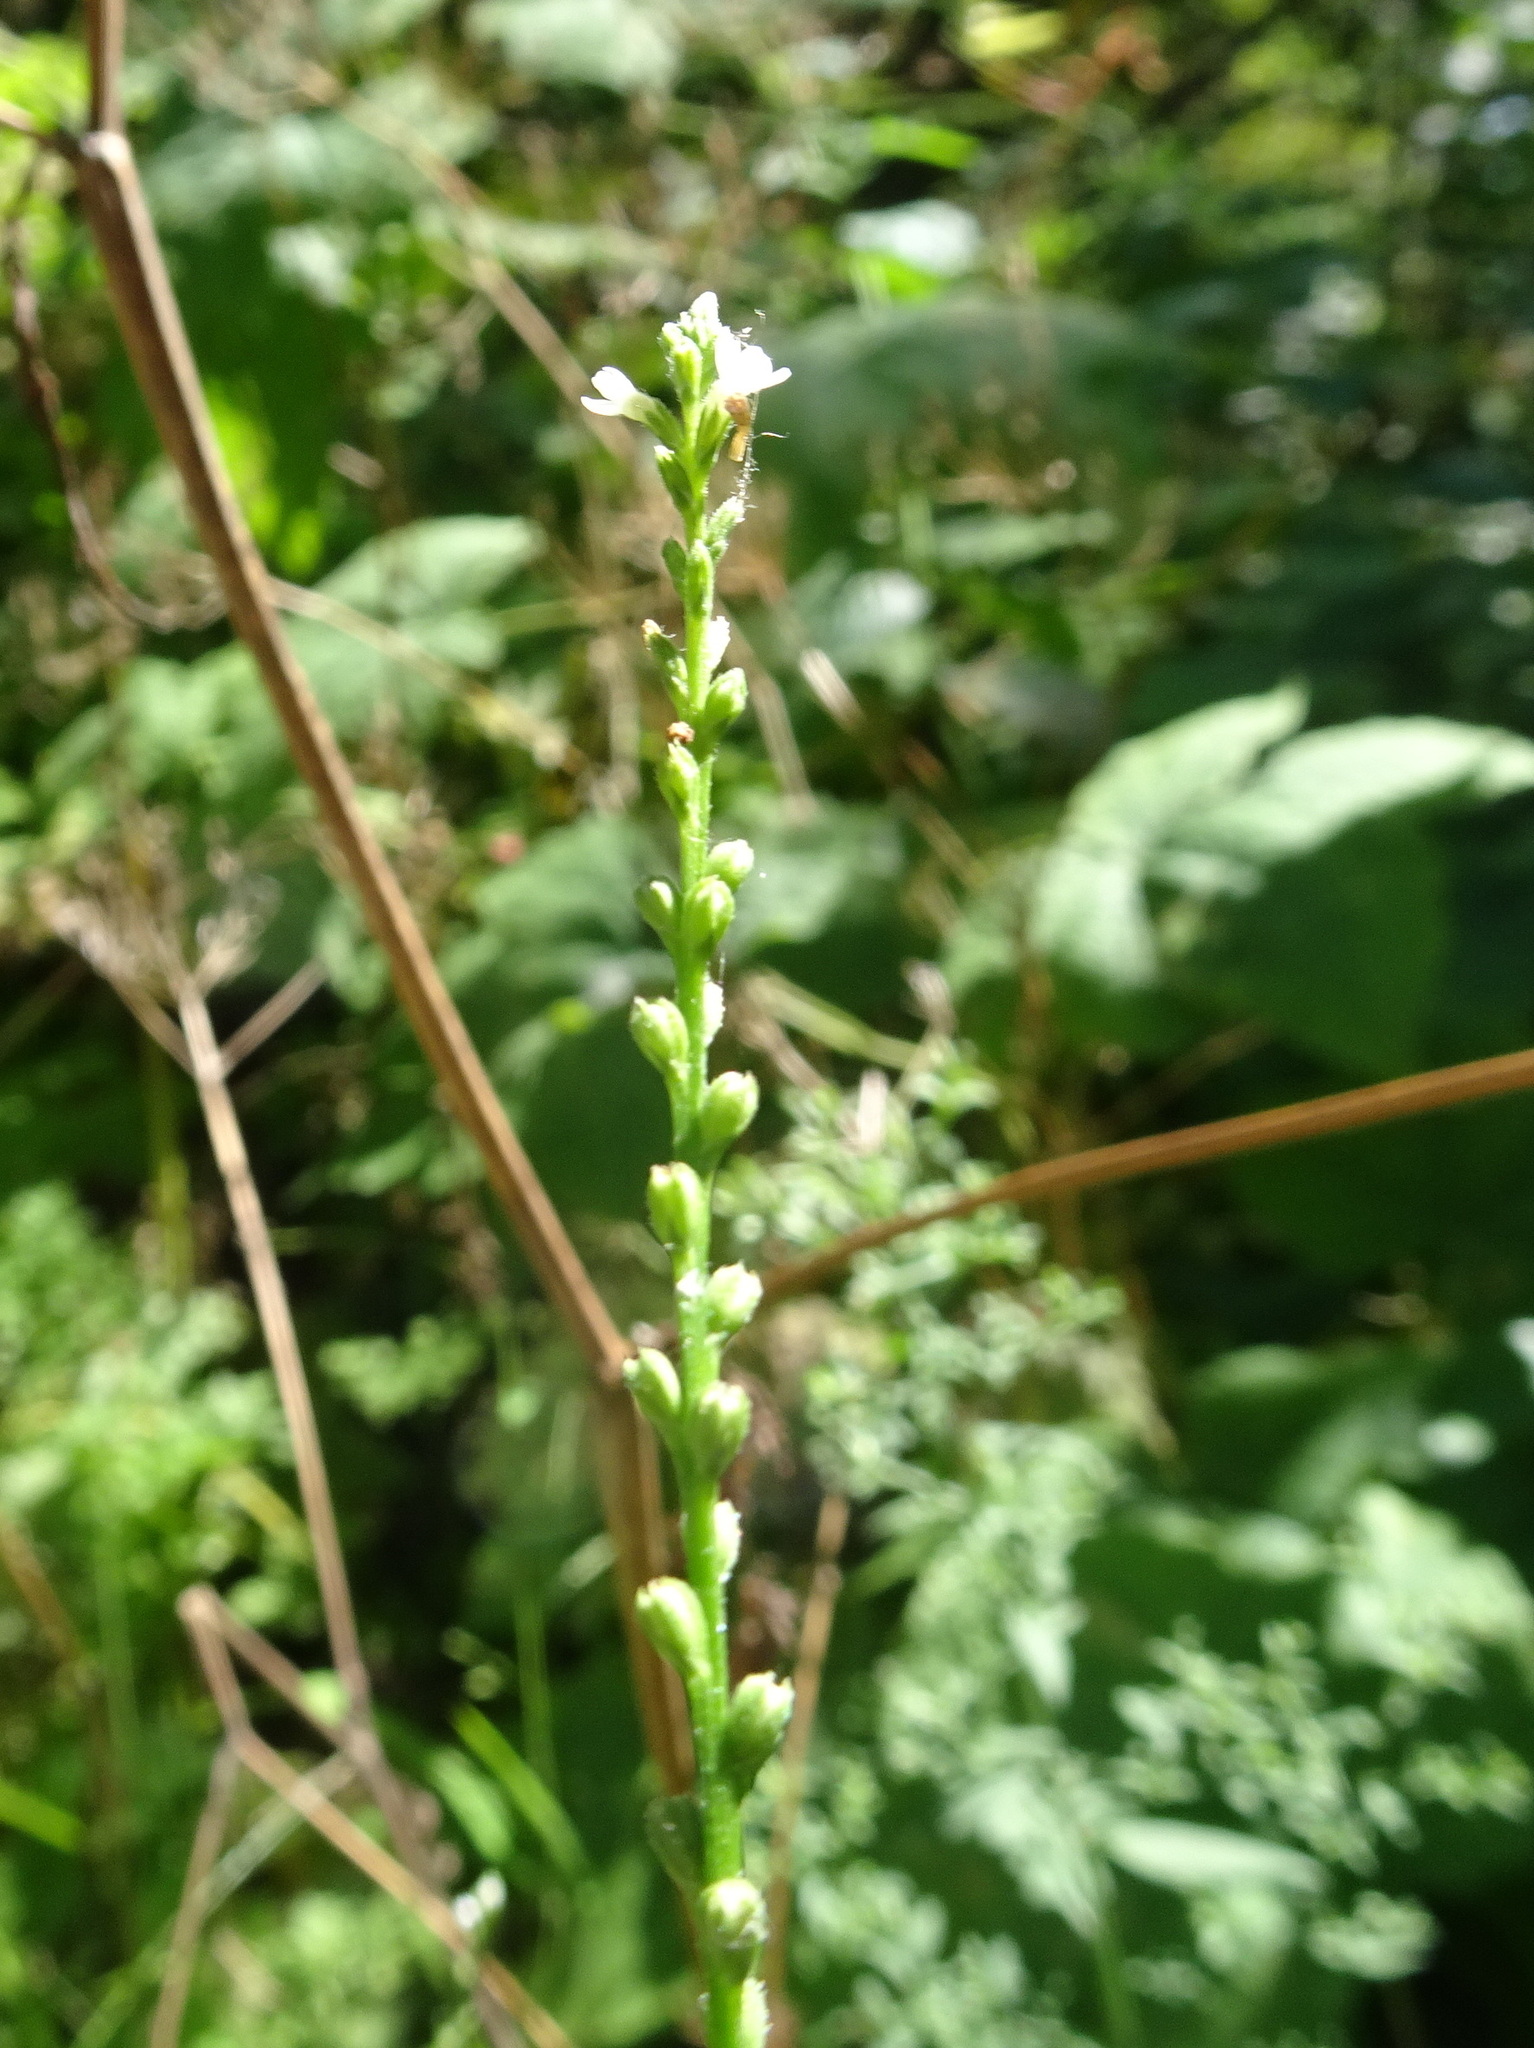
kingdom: Plantae
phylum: Tracheophyta
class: Magnoliopsida
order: Lamiales
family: Verbenaceae
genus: Verbena
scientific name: Verbena urticifolia
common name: Nettle-leaved vervain
